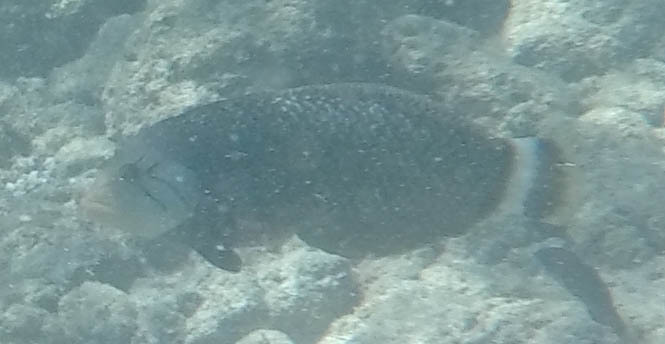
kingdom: Animalia
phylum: Chordata
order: Perciformes
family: Labridae
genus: Novaculichthys
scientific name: Novaculichthys taeniourus
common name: Rockmover wrasse
